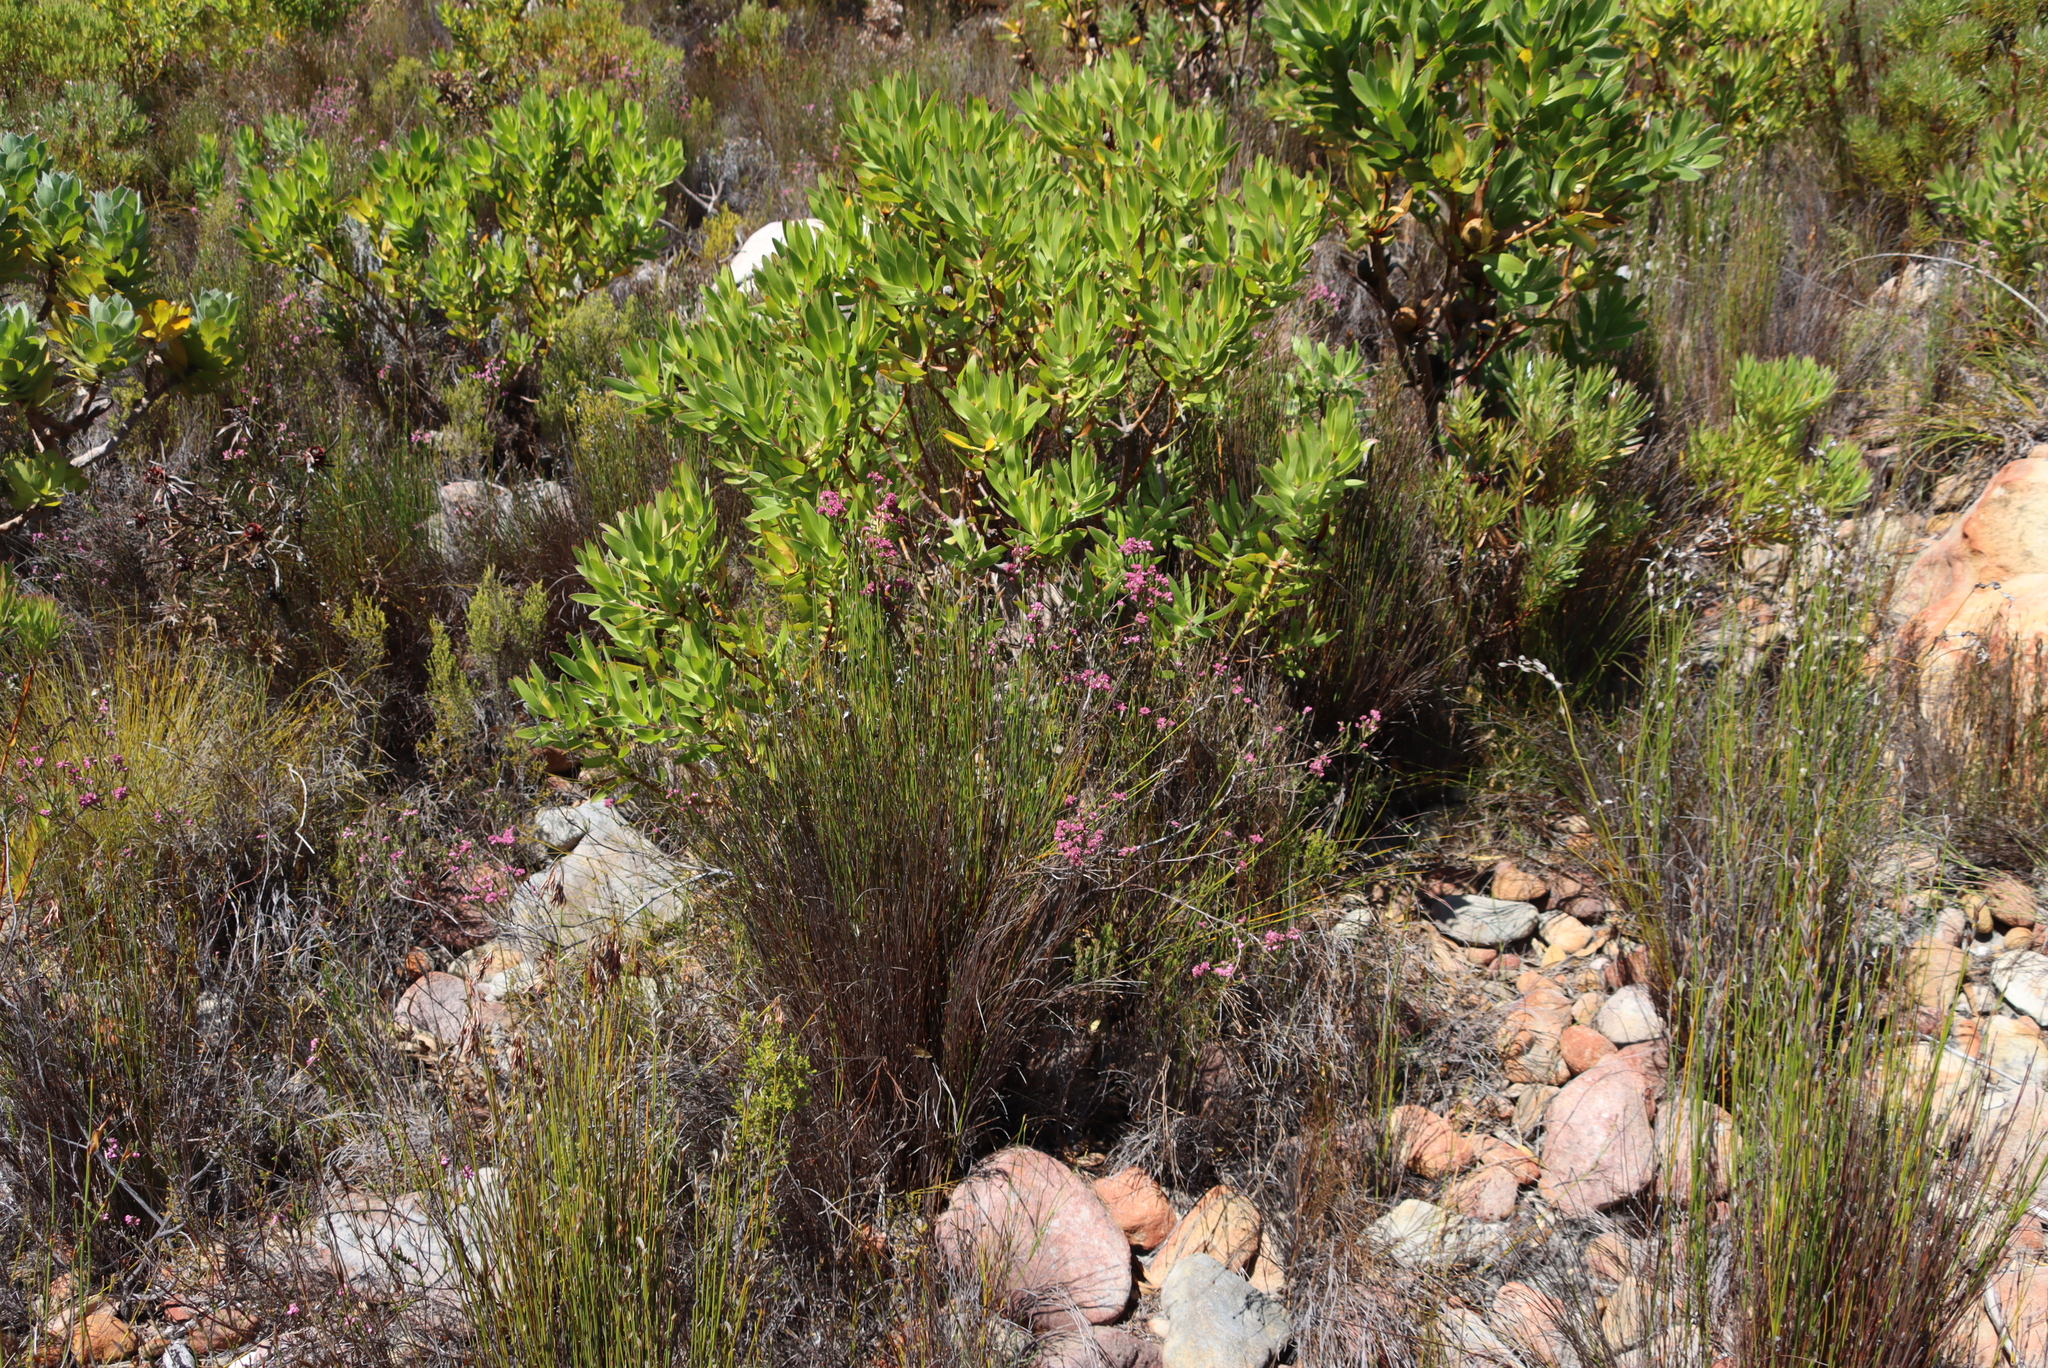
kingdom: Plantae
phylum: Tracheophyta
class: Magnoliopsida
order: Proteales
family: Proteaceae
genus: Leucadendron
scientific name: Leucadendron laureolum
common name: Golden sunshinebush
